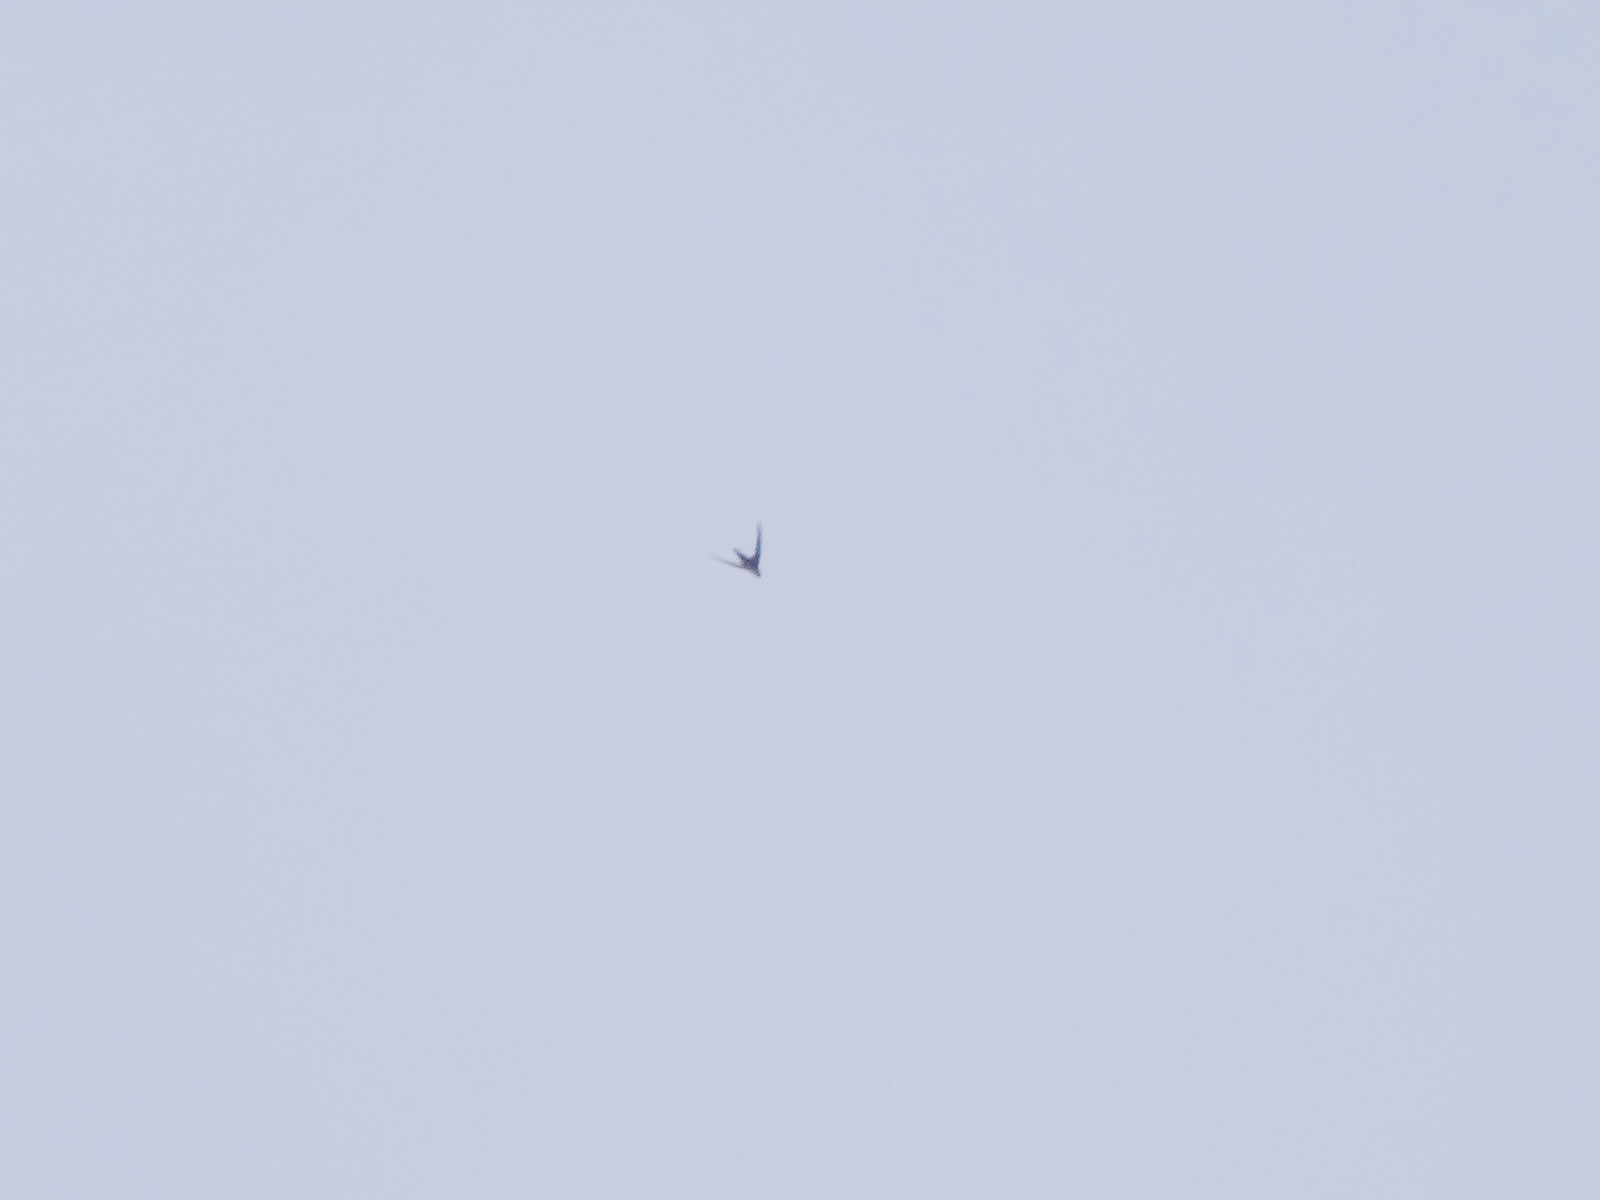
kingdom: Animalia
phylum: Chordata
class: Aves
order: Apodiformes
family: Apodidae
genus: Aeronautes
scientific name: Aeronautes saxatalis
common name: White-throated swift
